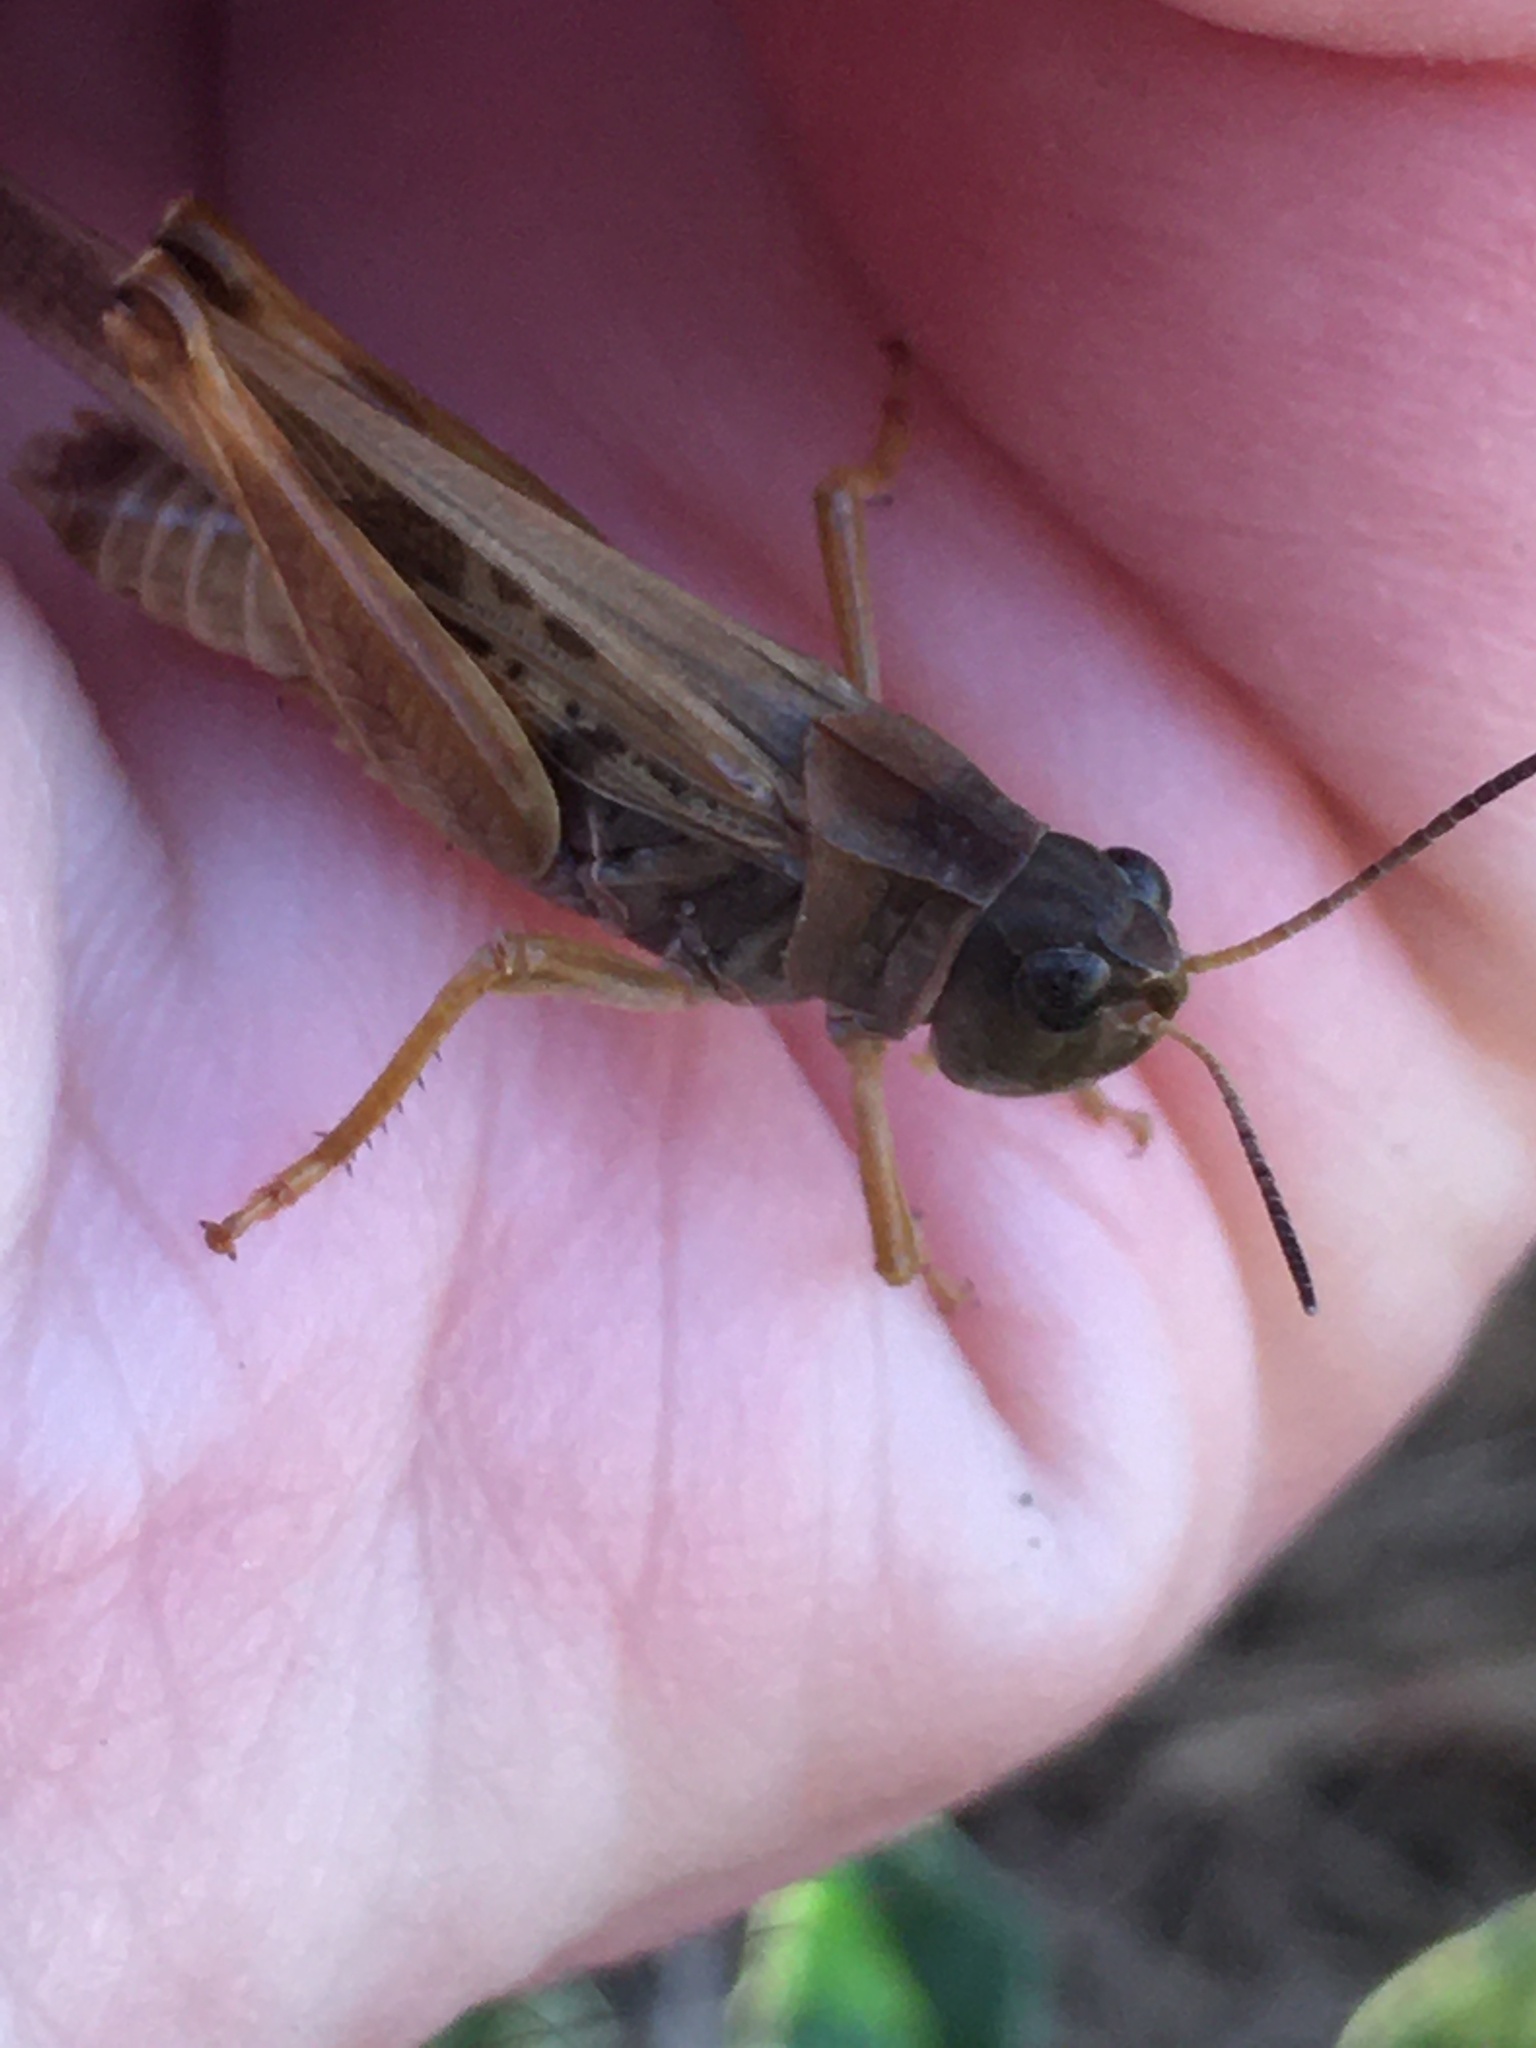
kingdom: Animalia
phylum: Arthropoda
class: Insecta
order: Orthoptera
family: Acrididae
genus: Camnula
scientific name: Camnula pellucida
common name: Clear-winged grasshopper
